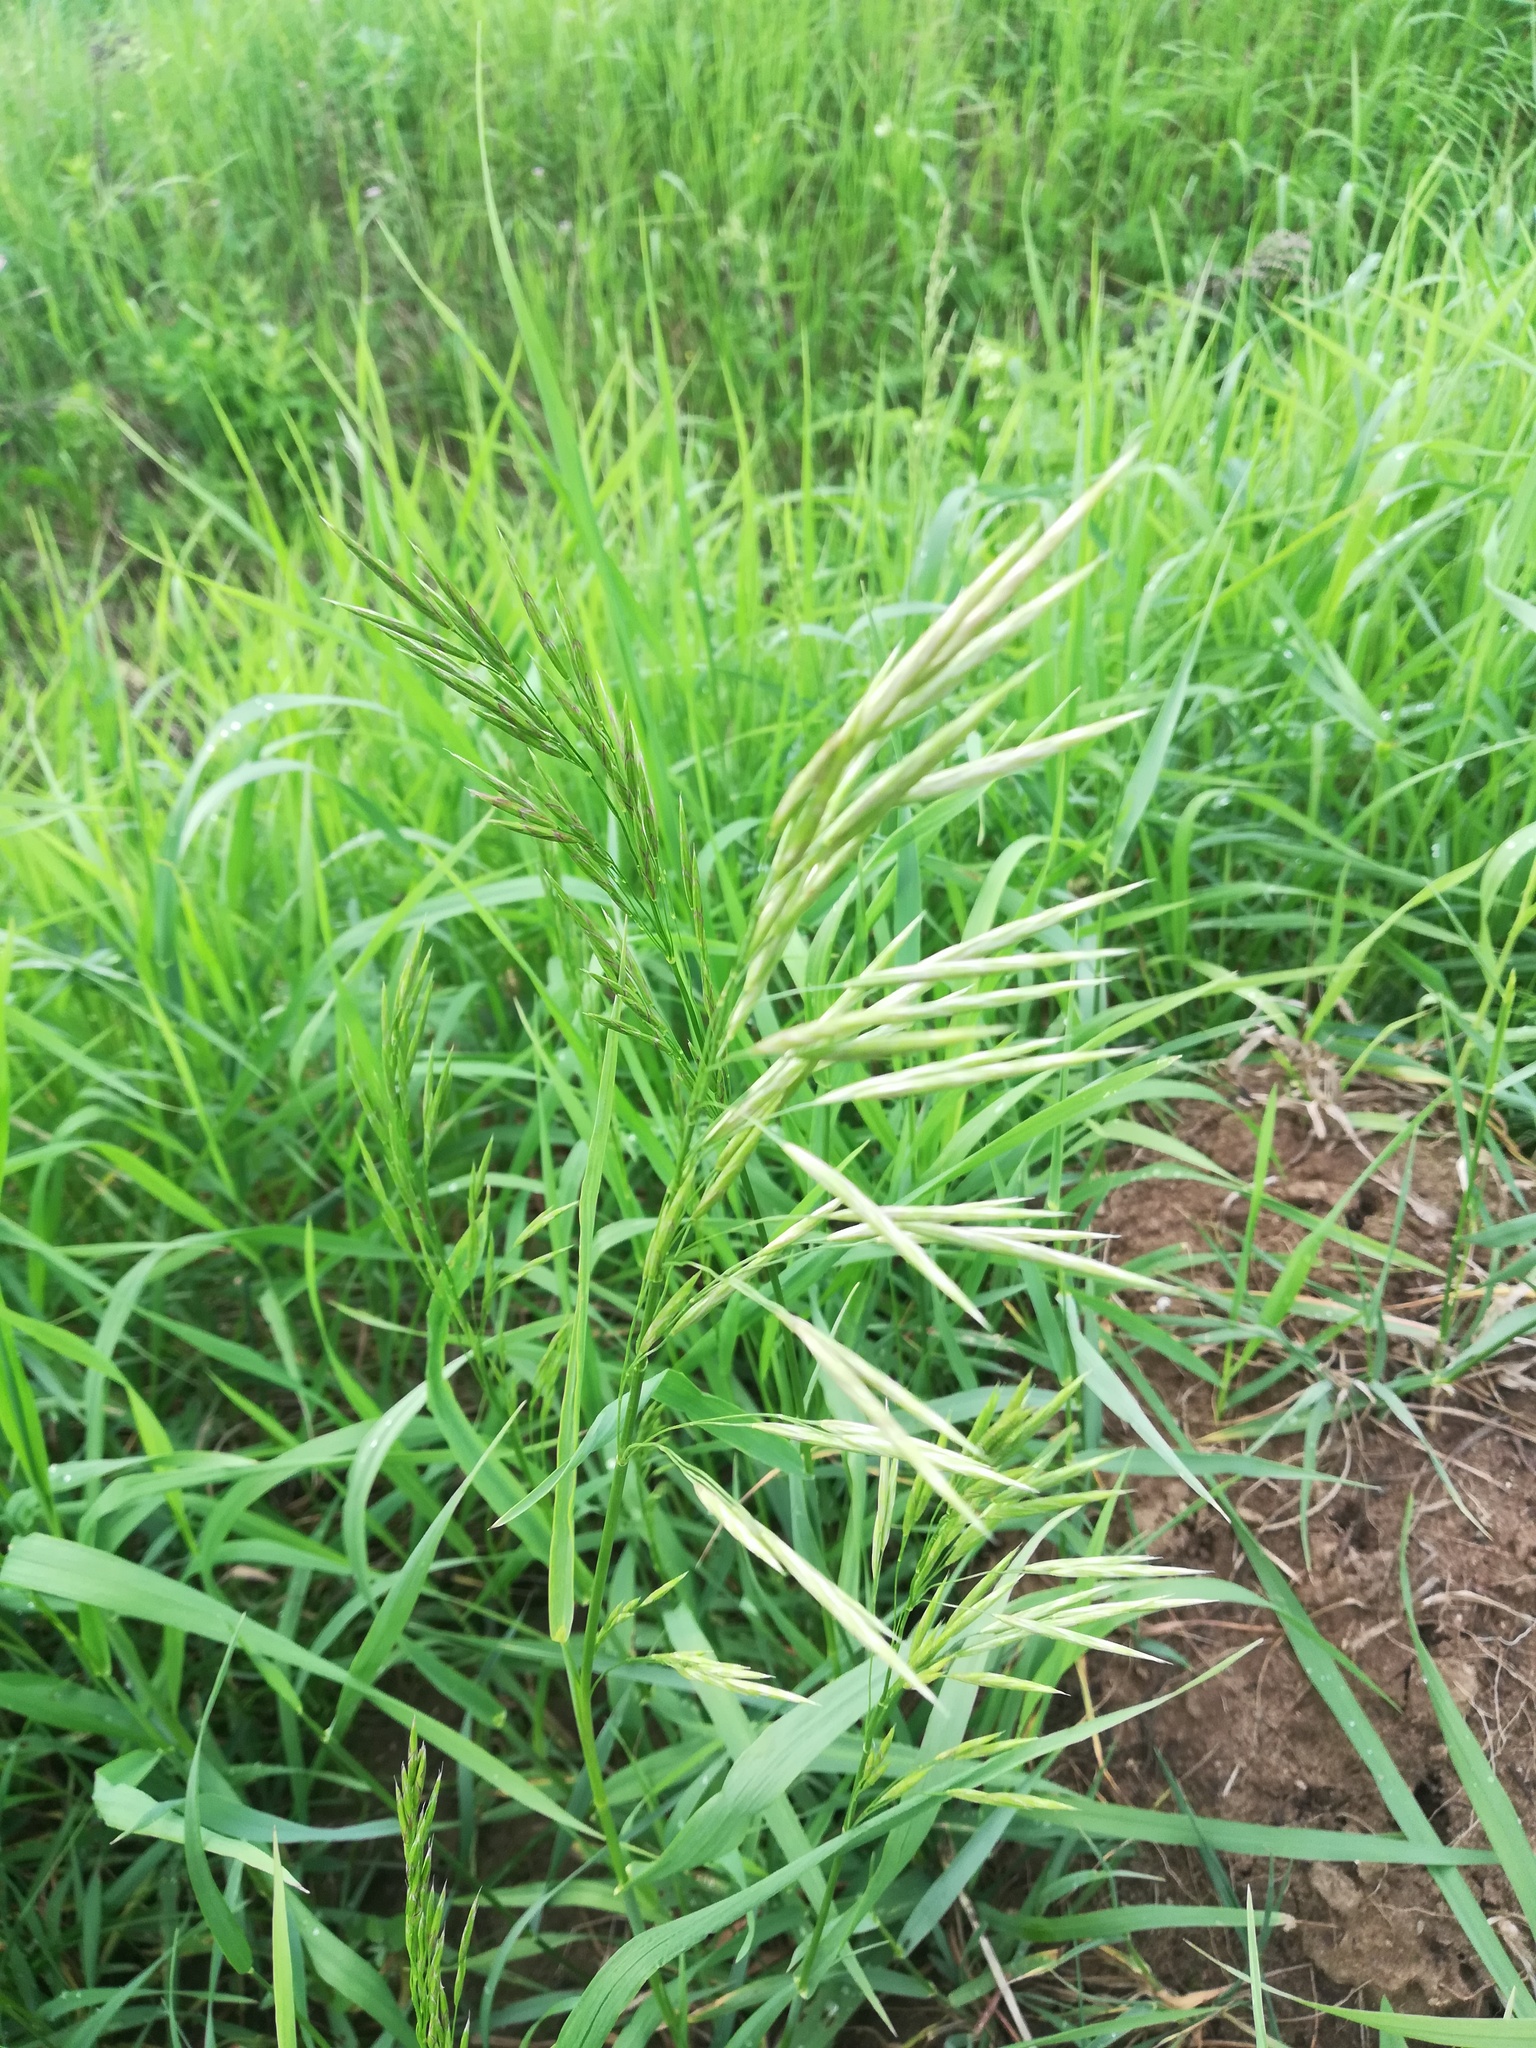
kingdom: Plantae
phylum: Tracheophyta
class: Liliopsida
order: Poales
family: Poaceae
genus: Bromus
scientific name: Bromus inermis
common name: Smooth brome
